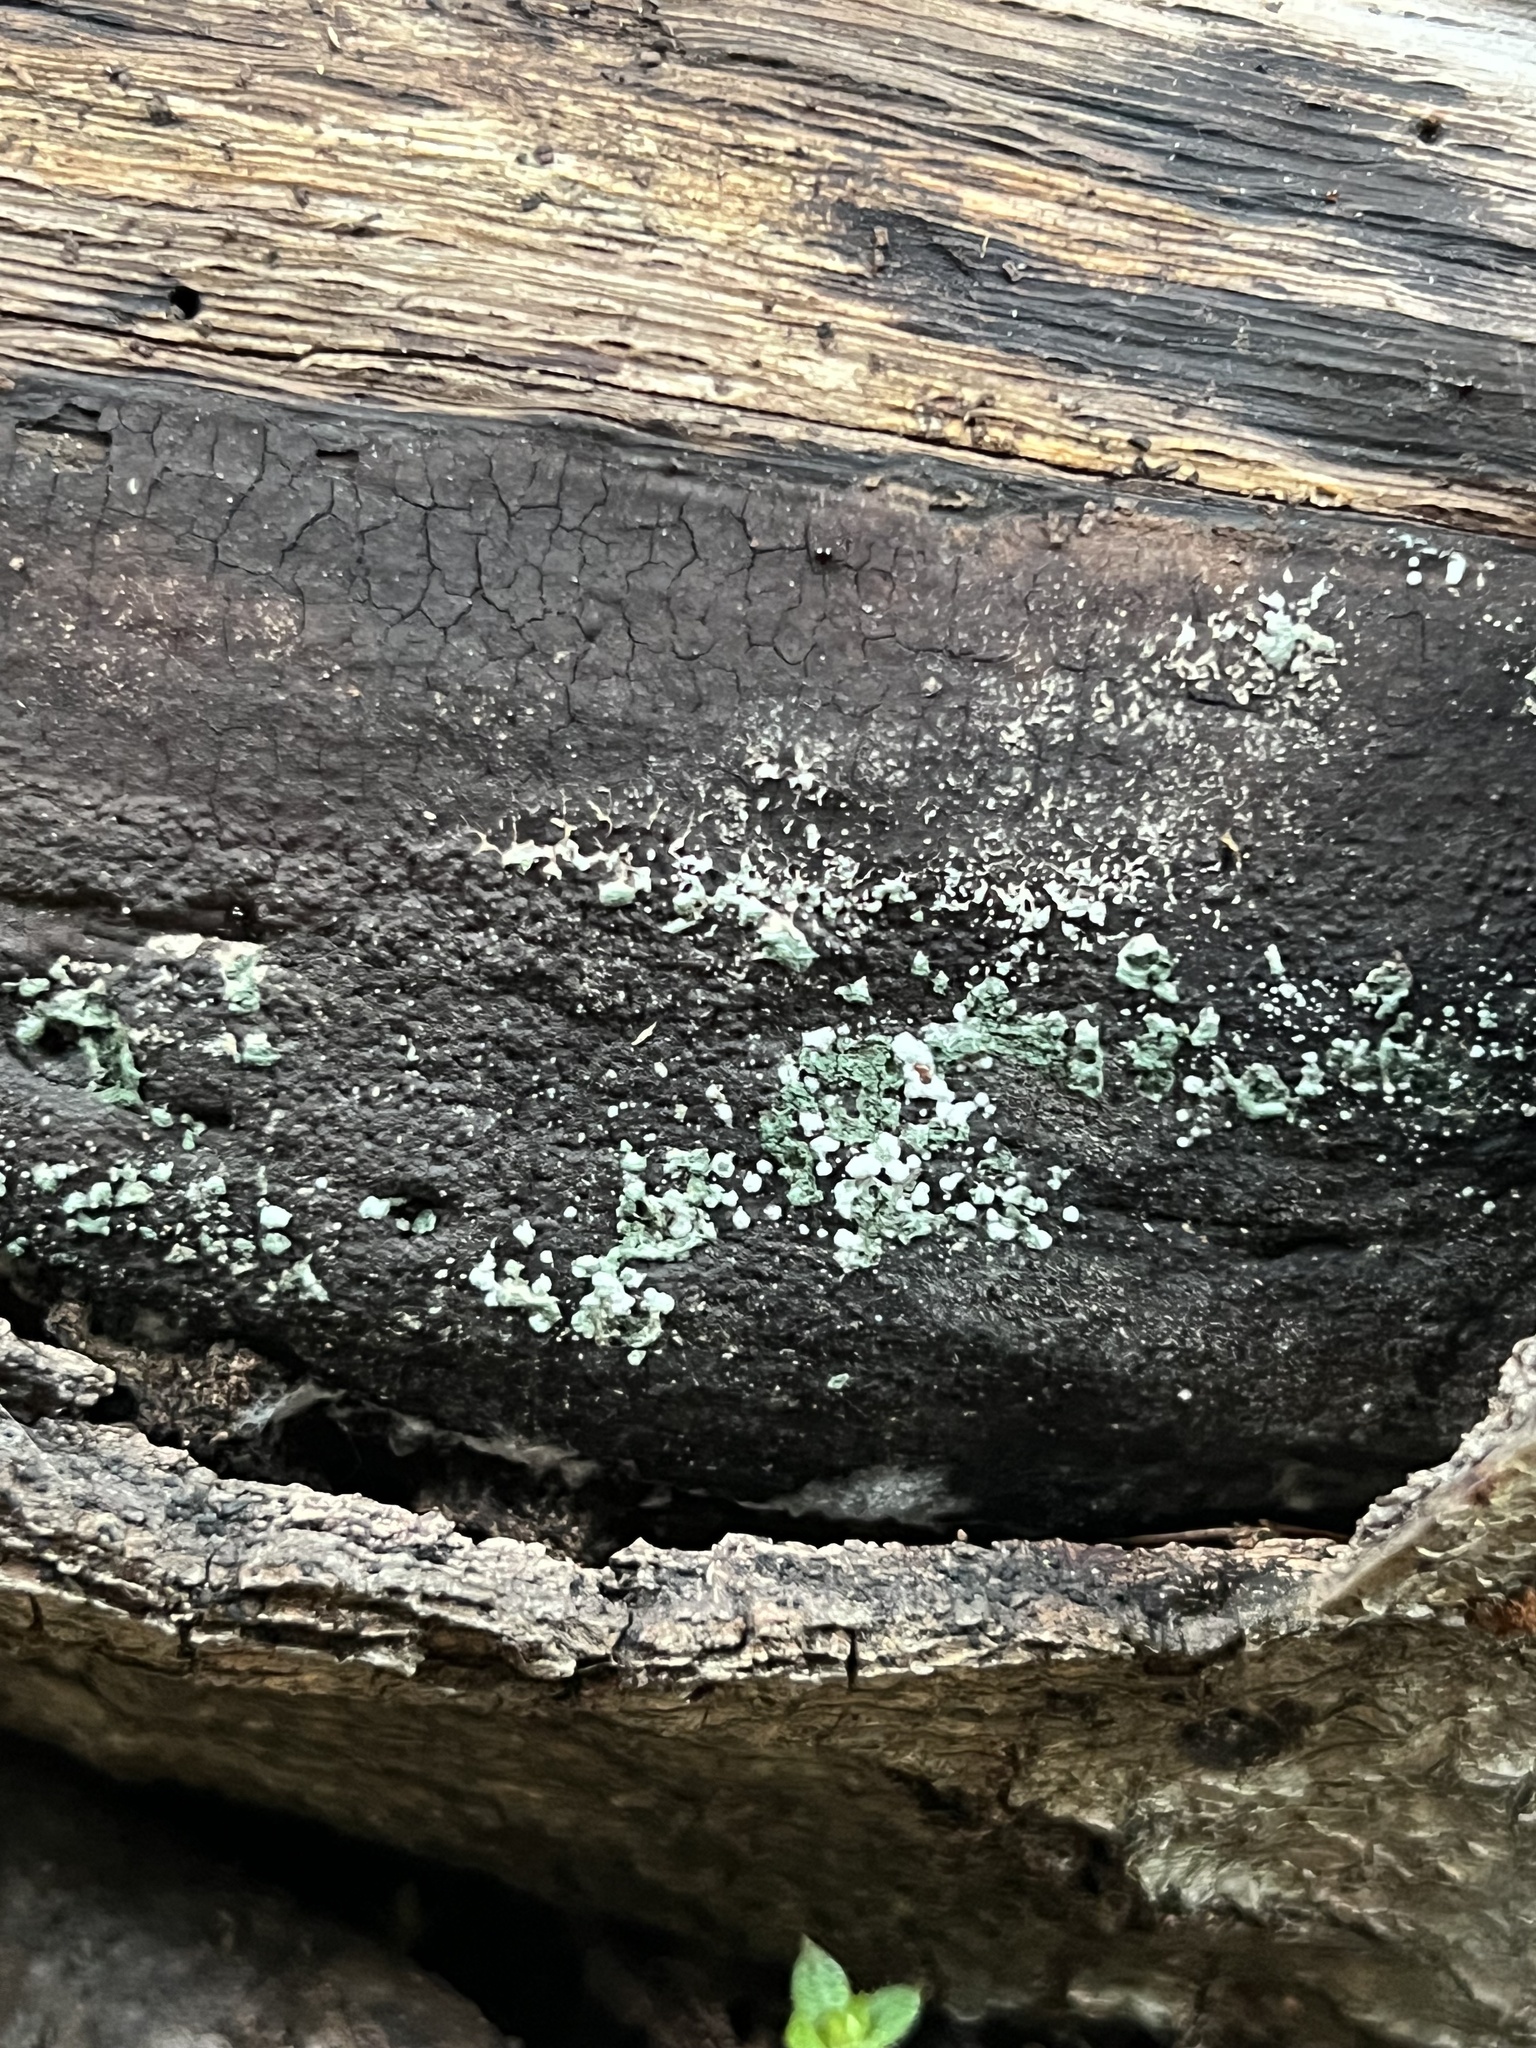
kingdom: Fungi
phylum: Ascomycota
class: Sordariomycetes
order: Hypocreales
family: Hypocreaceae
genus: Trichoderma
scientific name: Trichoderma viride
